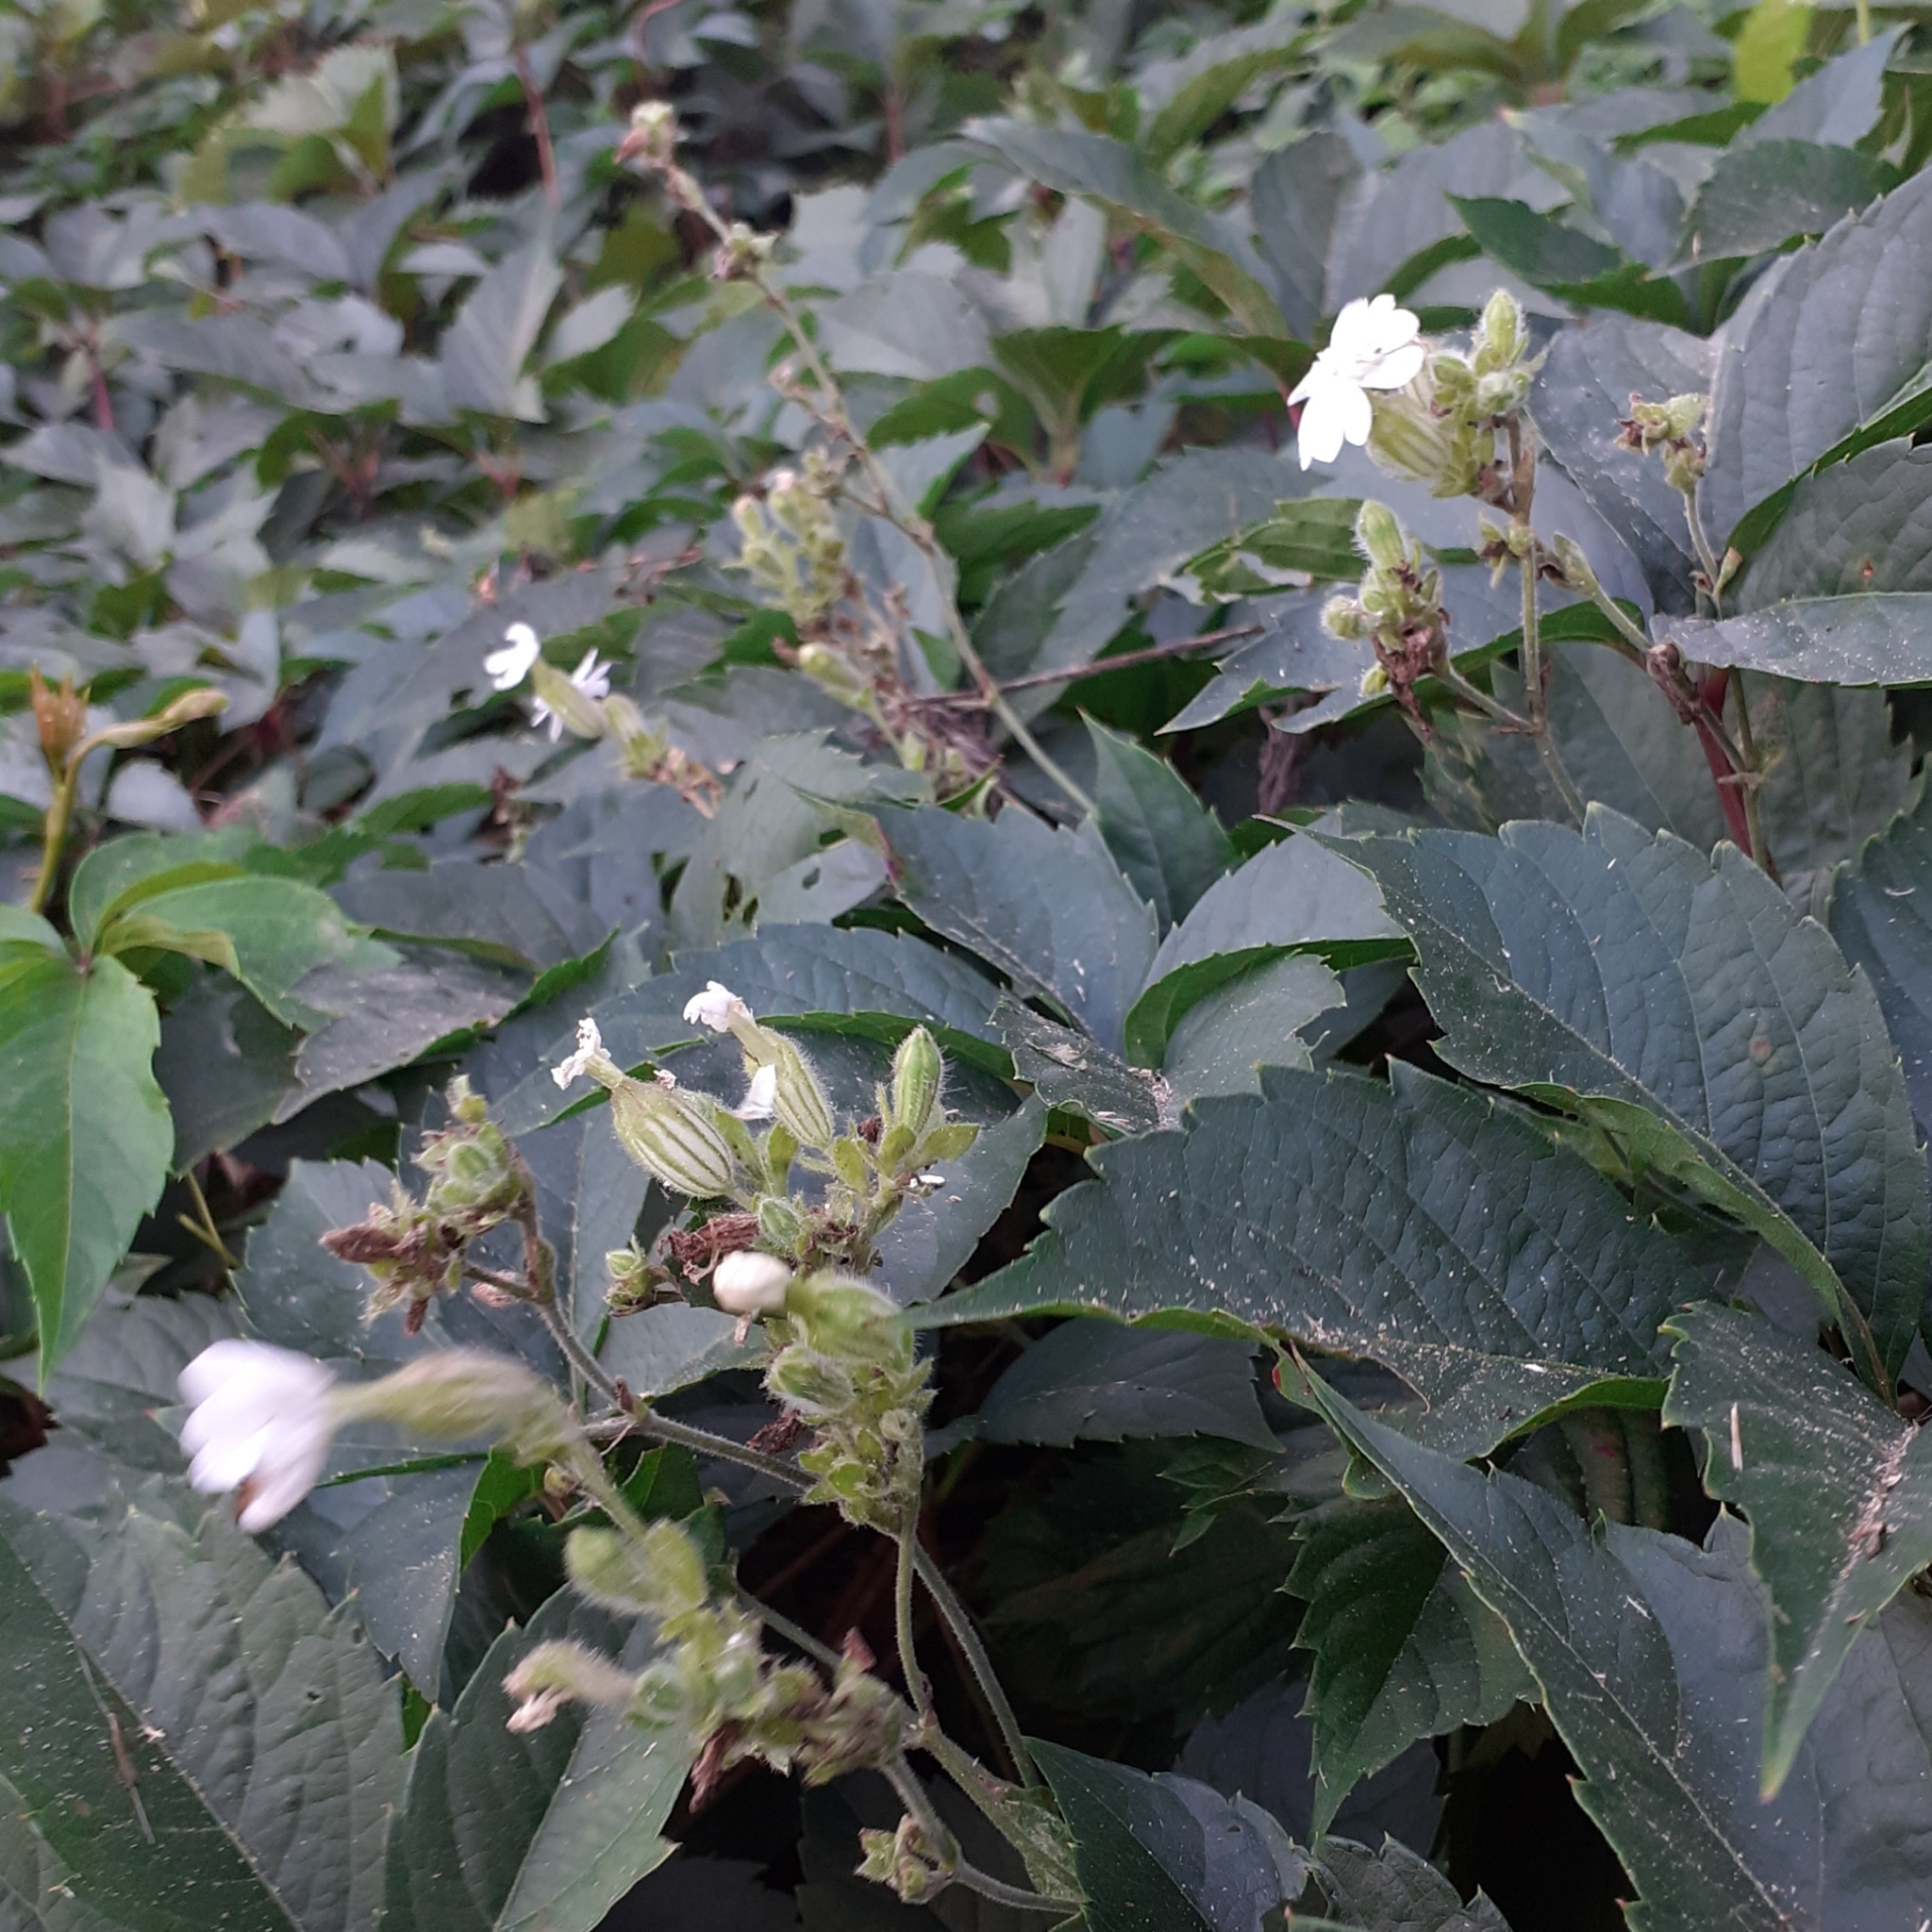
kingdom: Plantae
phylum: Tracheophyta
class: Magnoliopsida
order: Caryophyllales
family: Caryophyllaceae
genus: Silene
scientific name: Silene latifolia
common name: White campion
